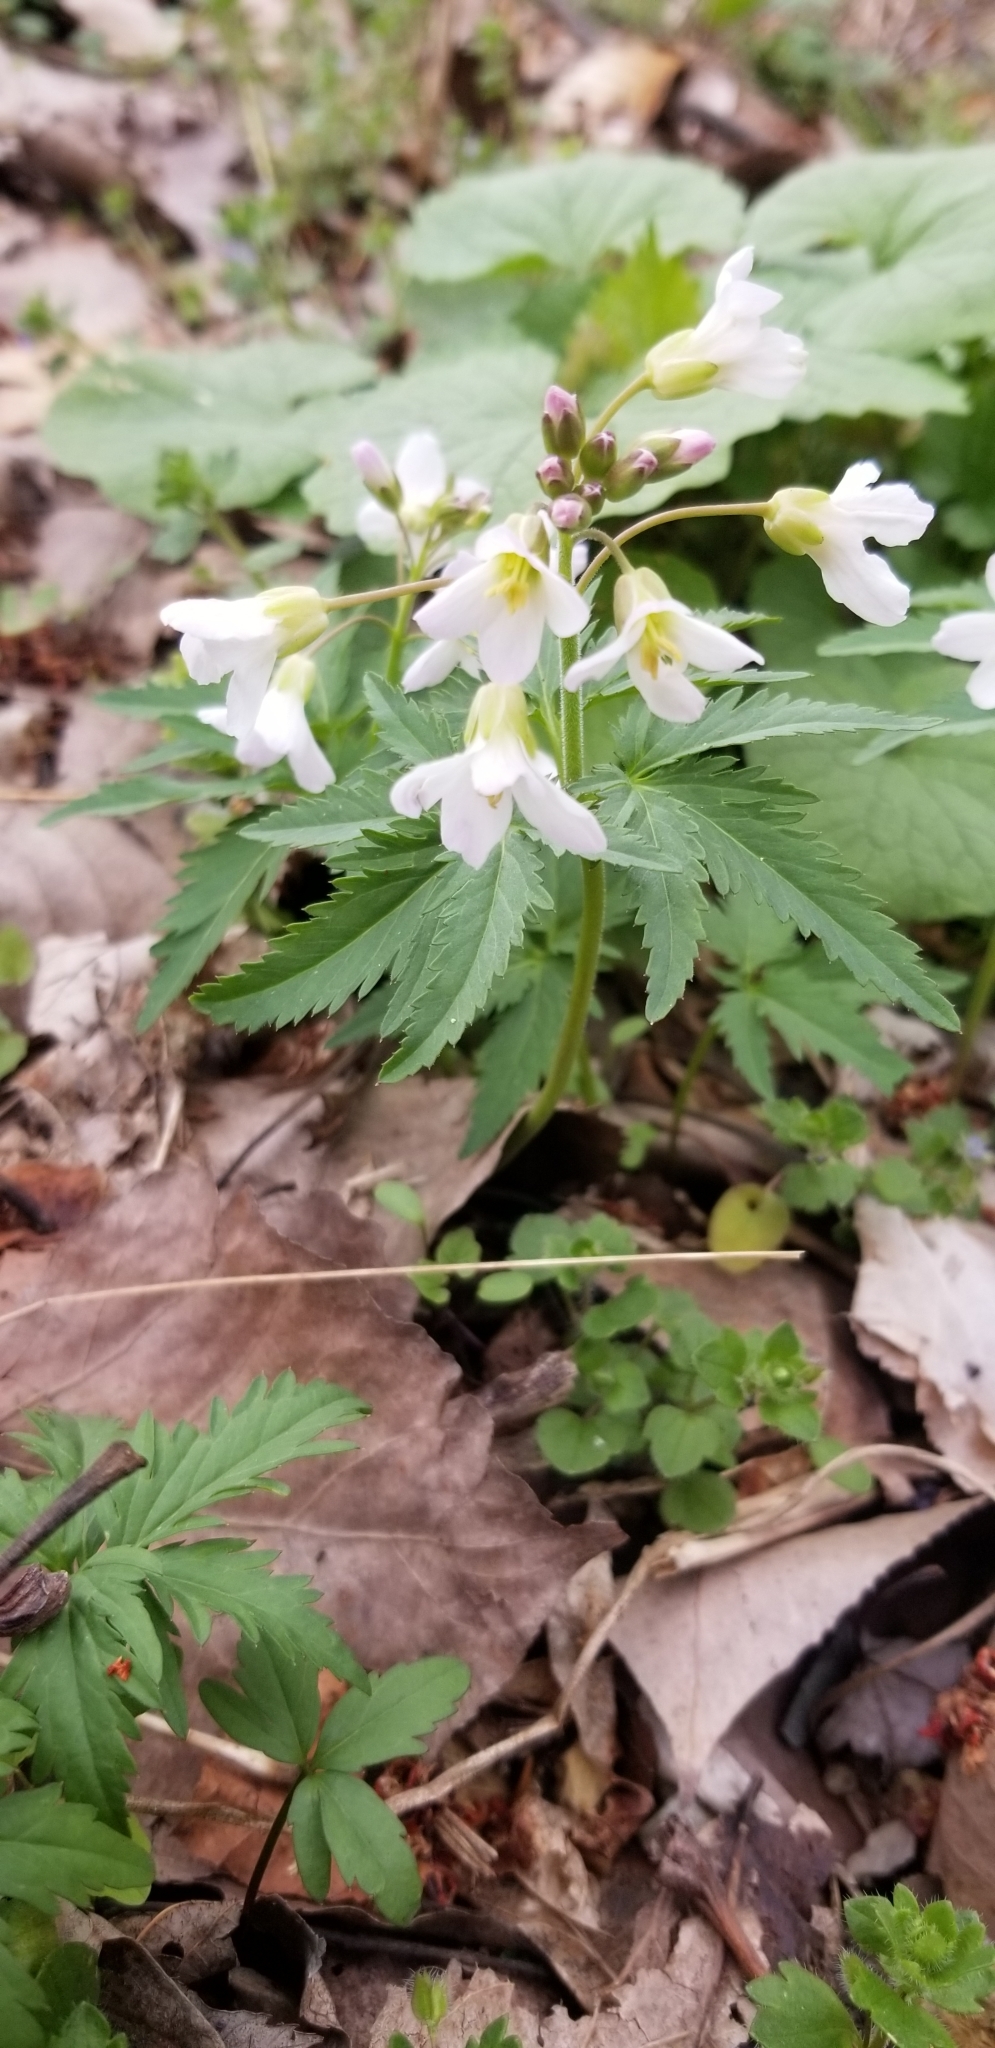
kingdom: Plantae
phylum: Tracheophyta
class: Magnoliopsida
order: Brassicales
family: Brassicaceae
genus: Cardamine
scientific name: Cardamine concatenata
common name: Cut-leaf toothcup
